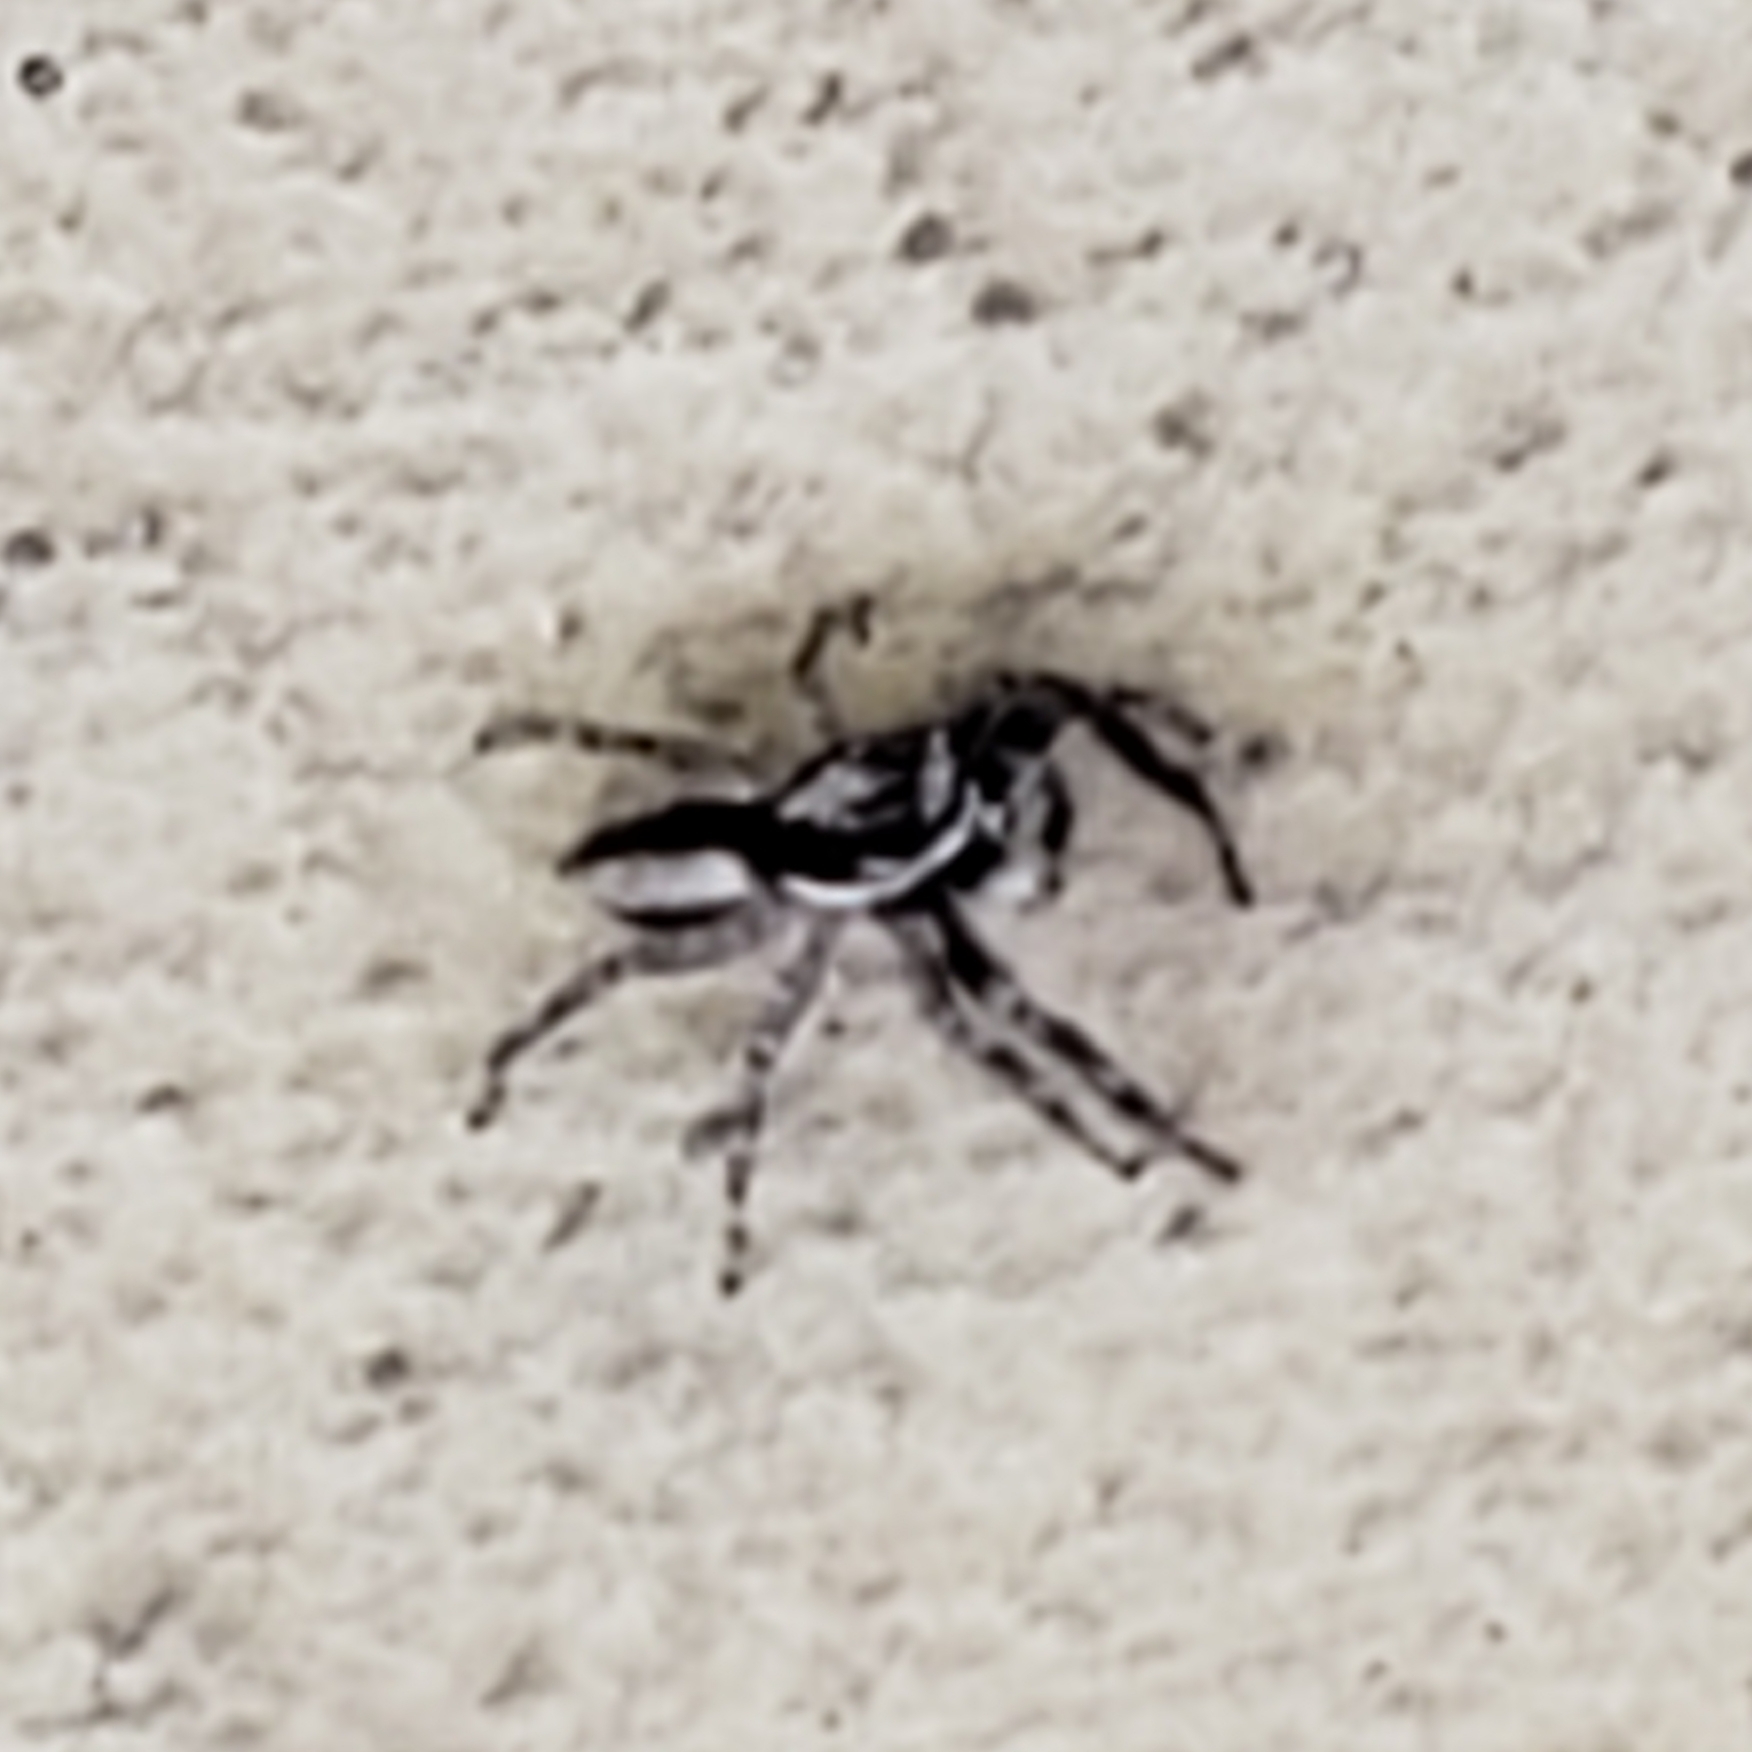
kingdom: Animalia
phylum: Arthropoda
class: Arachnida
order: Araneae
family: Salticidae
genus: Menemerus
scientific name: Menemerus bivittatus
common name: Gray wall jumper
